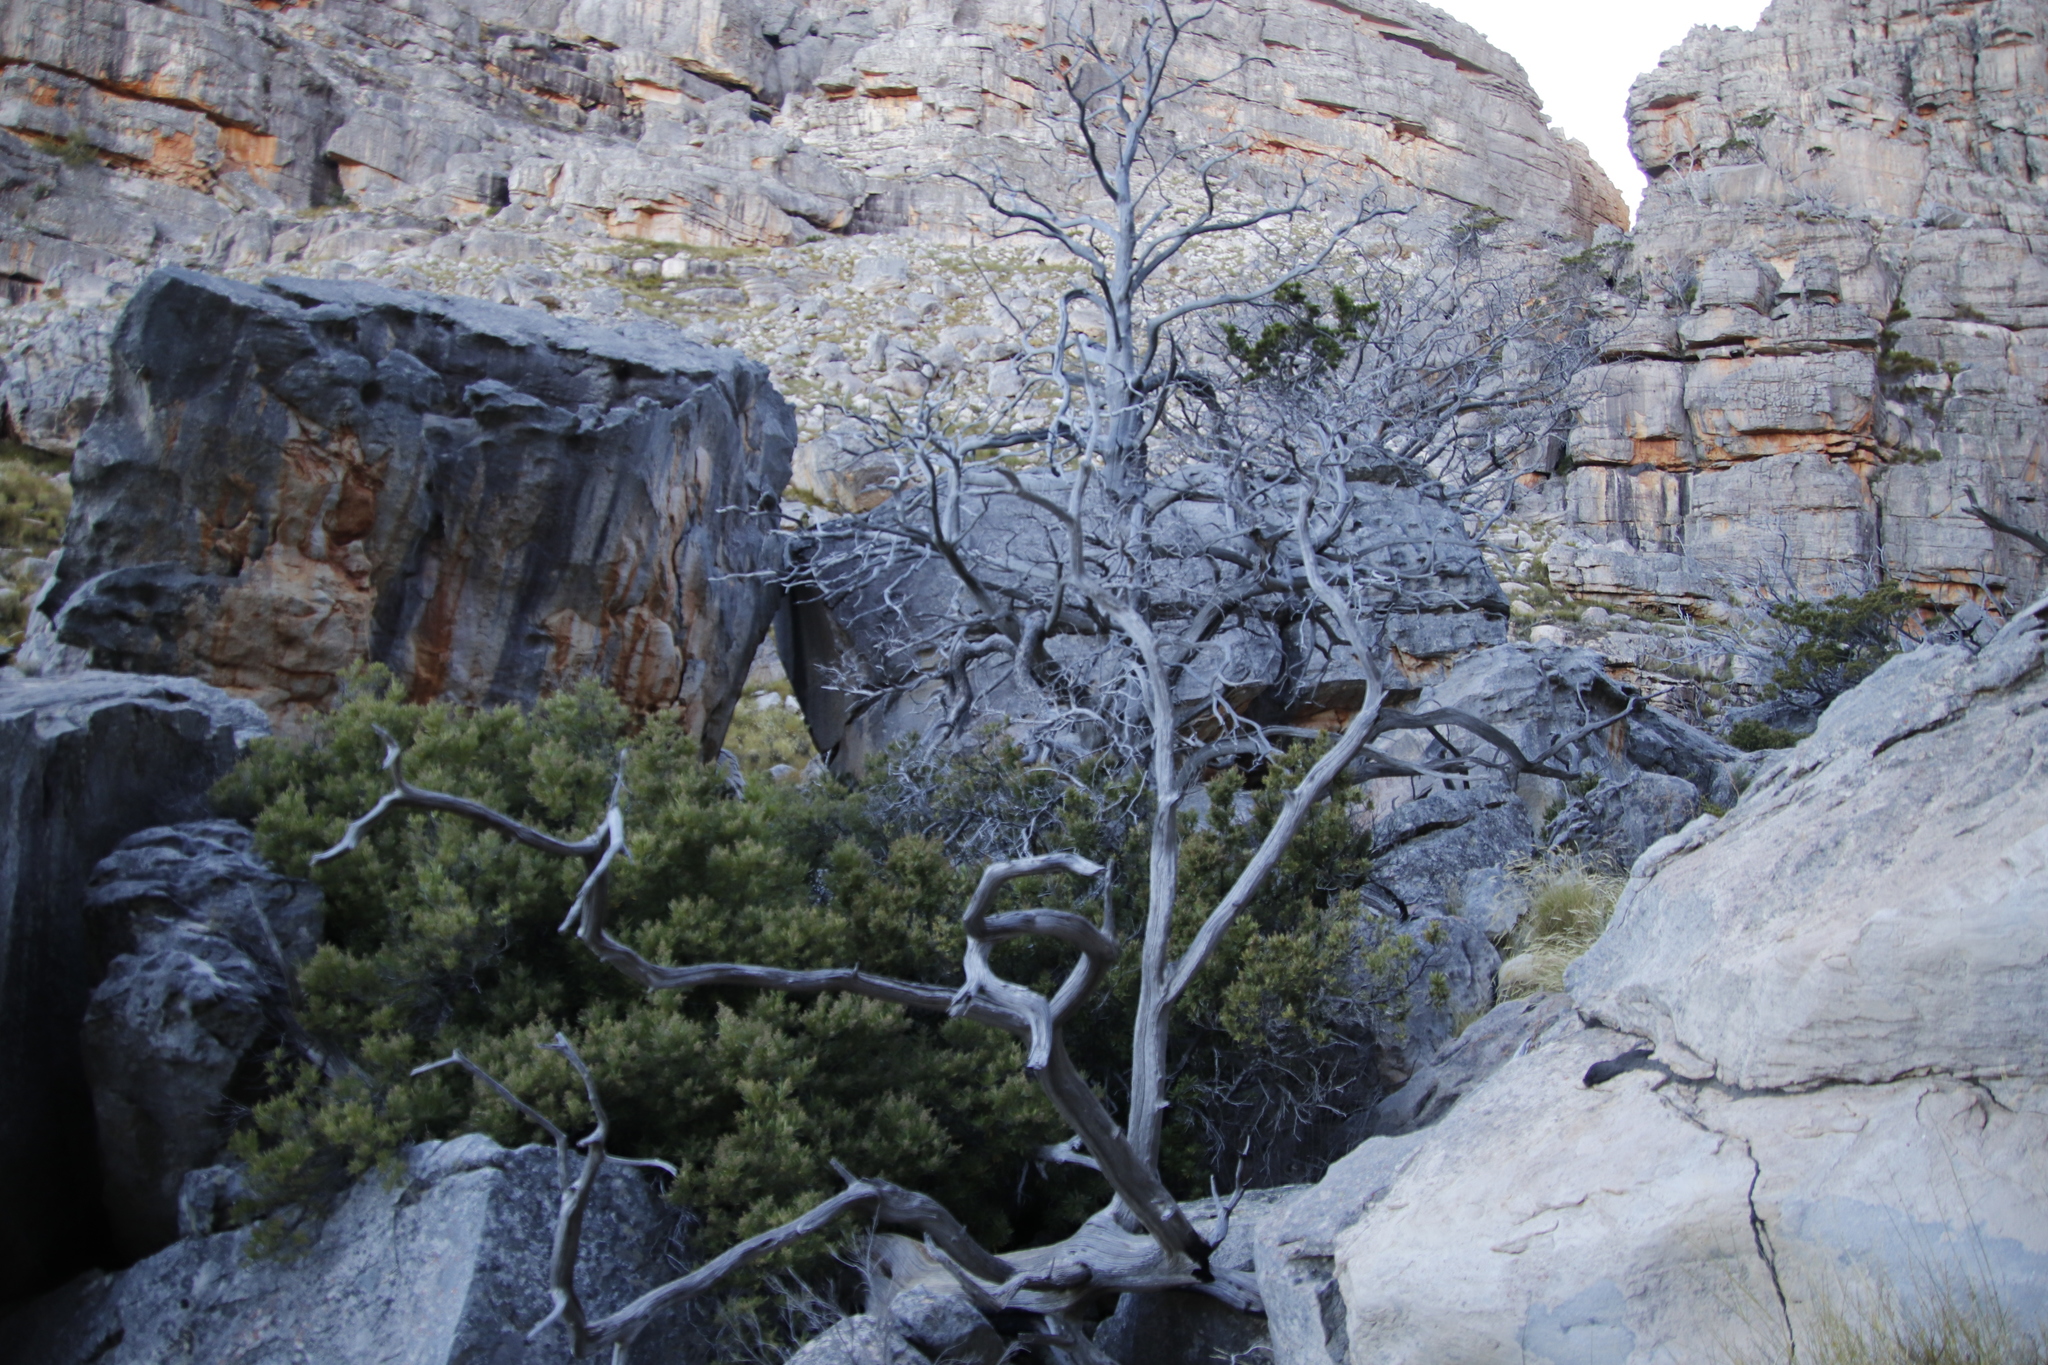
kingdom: Plantae
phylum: Tracheophyta
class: Pinopsida
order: Pinales
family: Cupressaceae
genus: Widdringtonia
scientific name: Widdringtonia nodiflora
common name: Cape cypress
